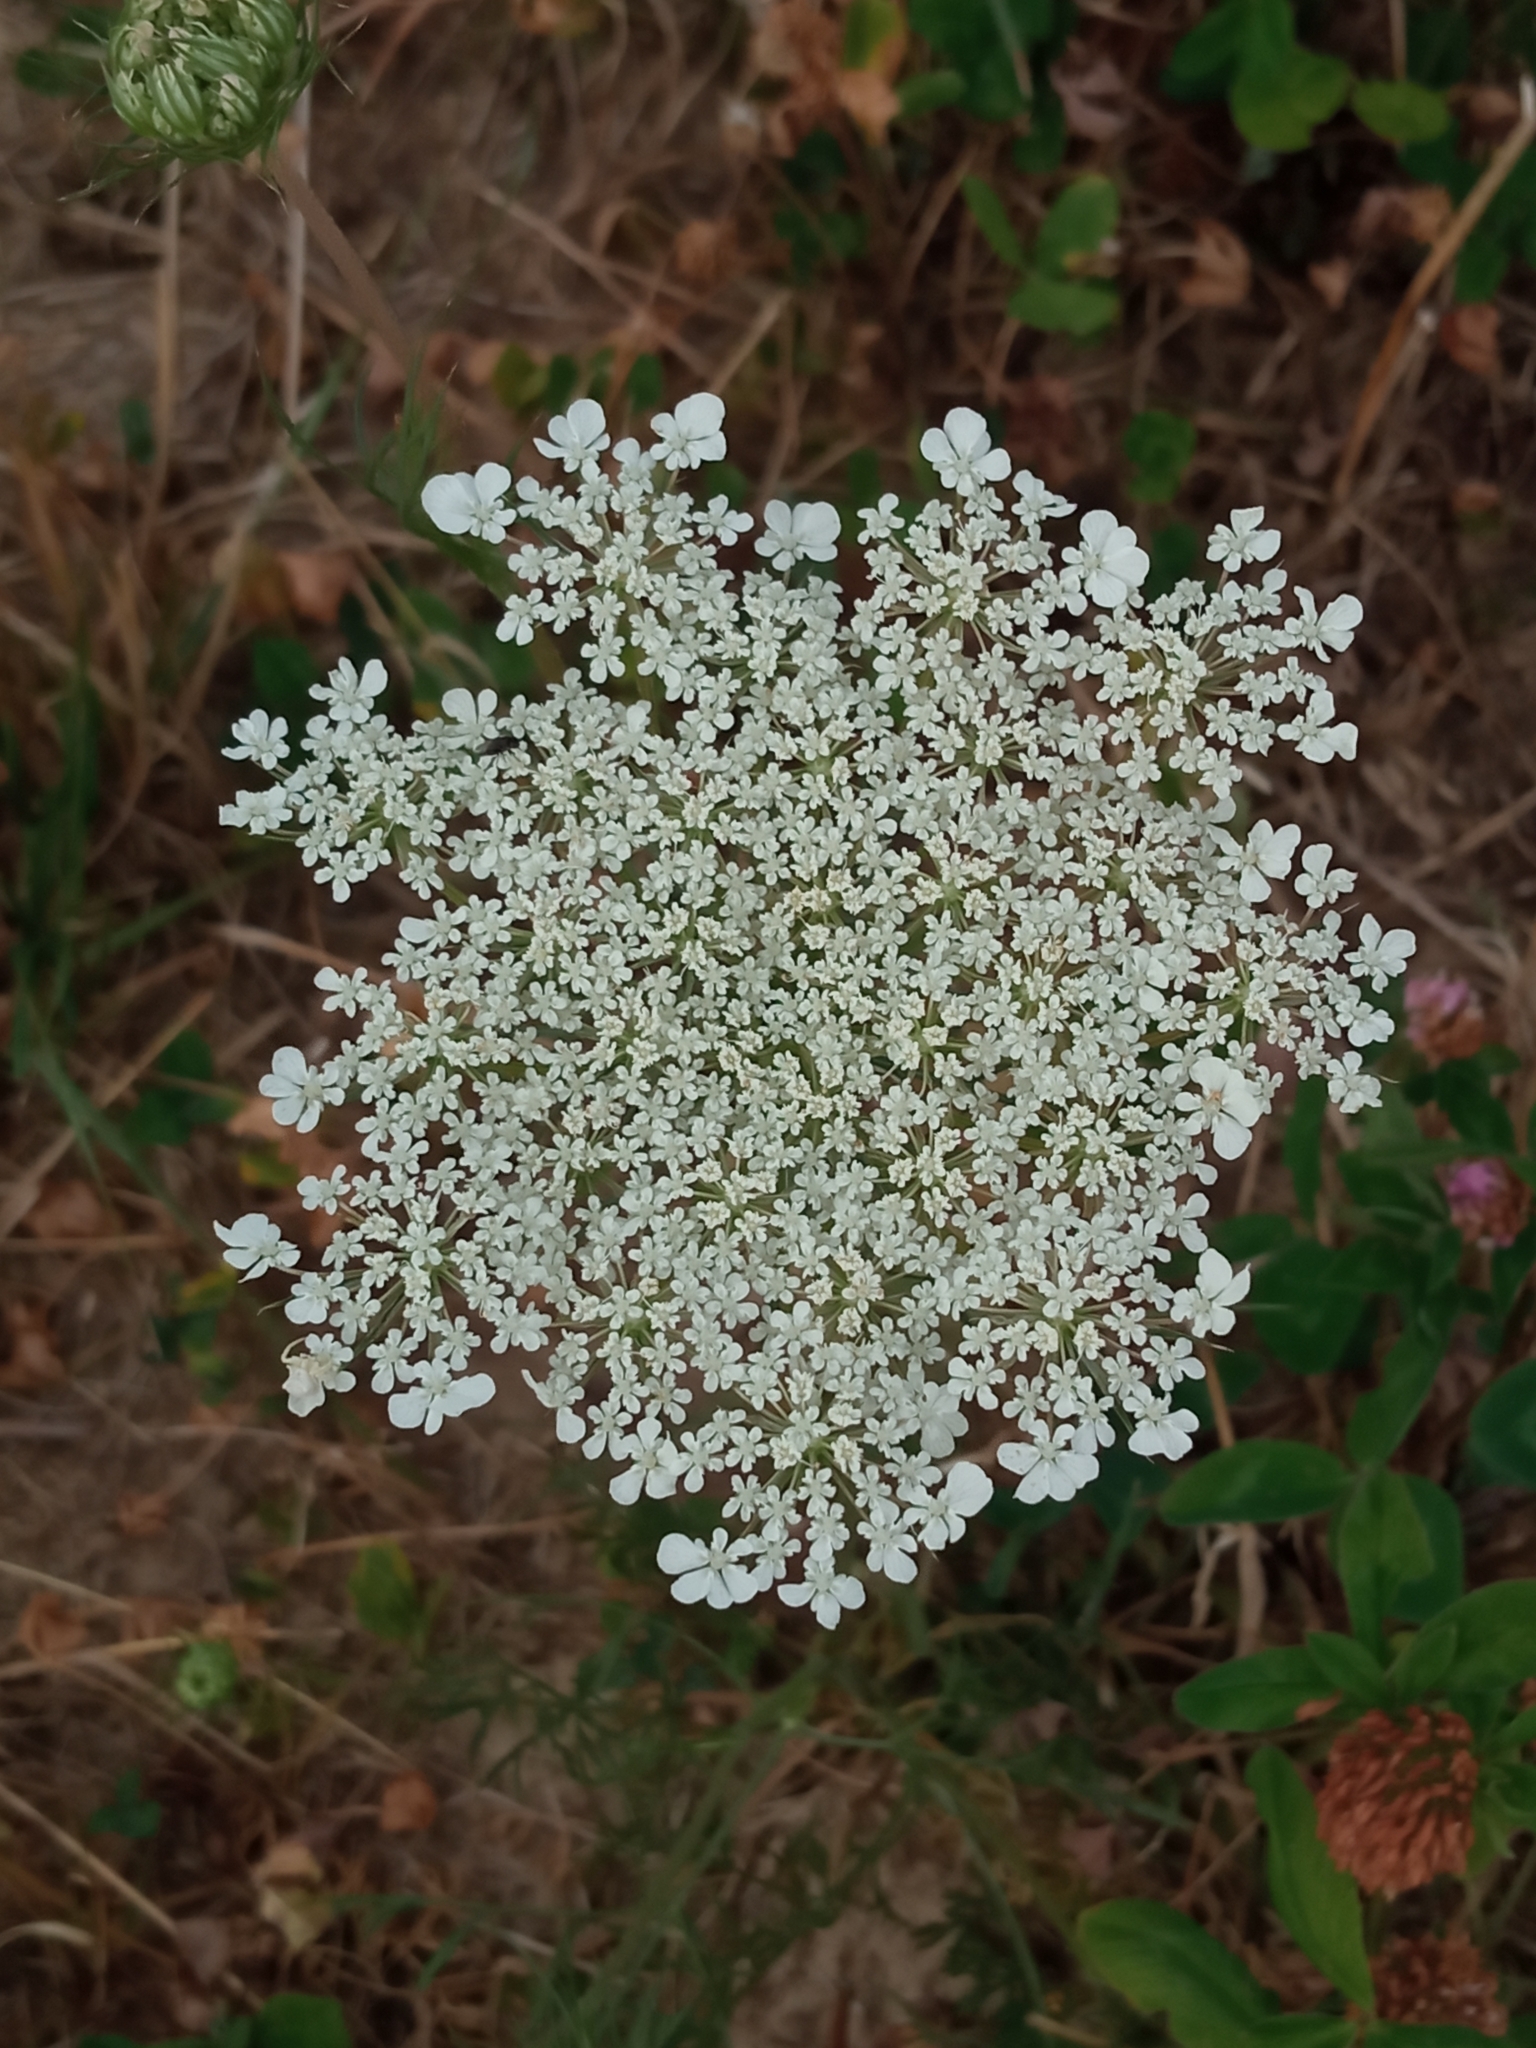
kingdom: Plantae
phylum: Tracheophyta
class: Magnoliopsida
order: Apiales
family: Apiaceae
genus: Daucus
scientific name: Daucus carota
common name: Wild carrot
